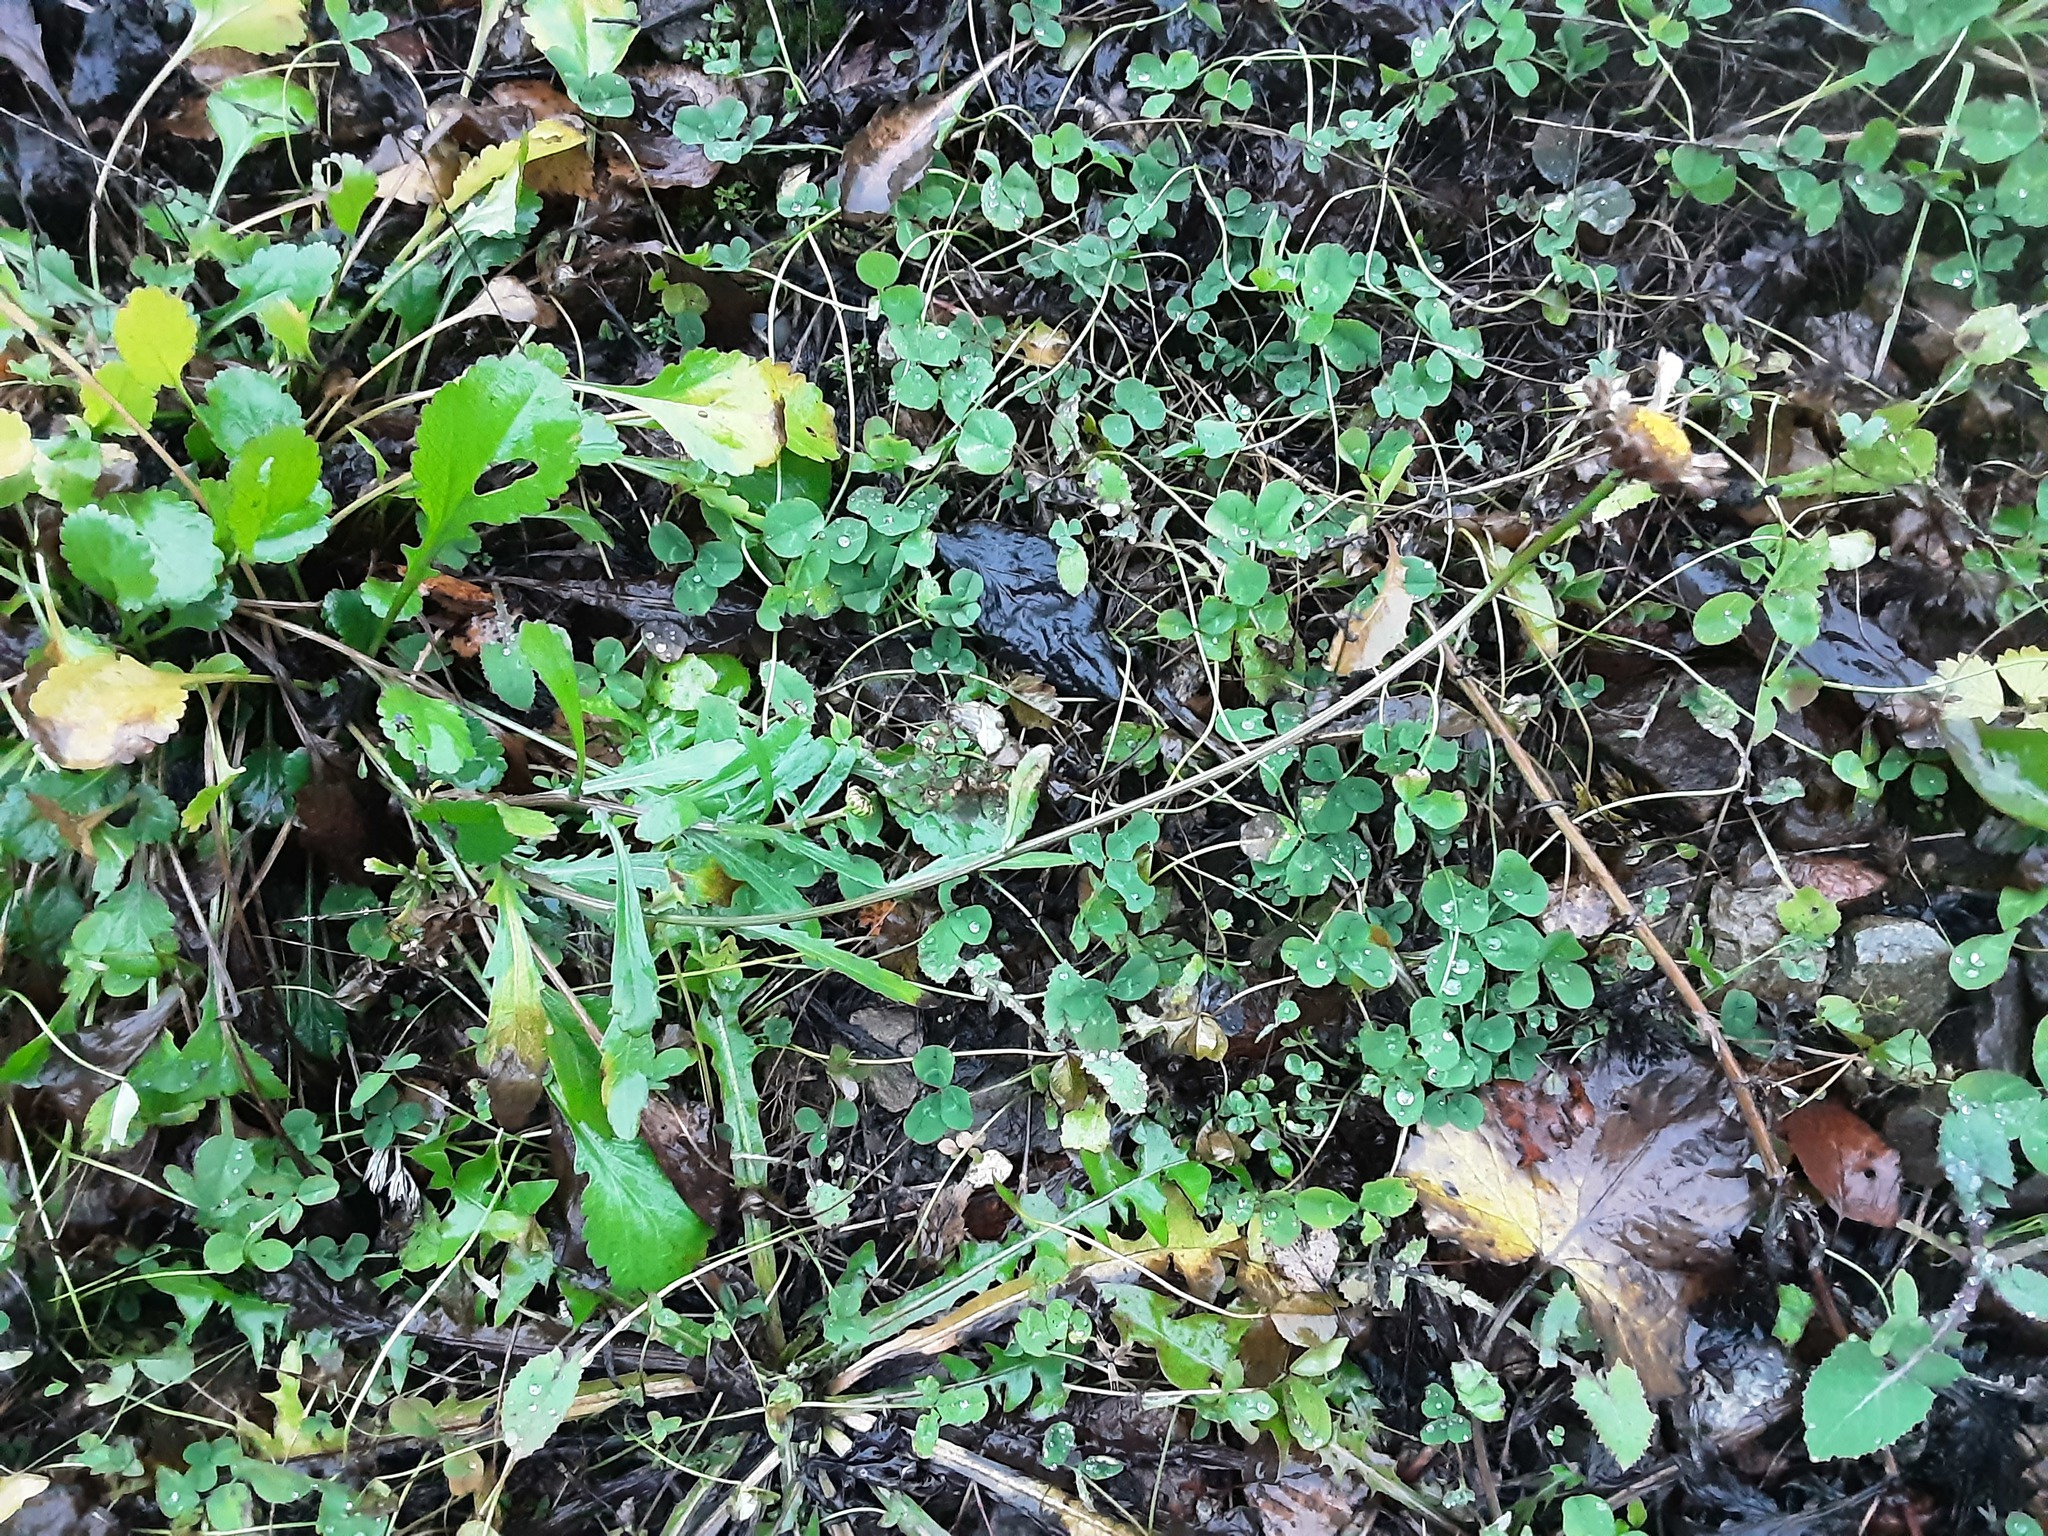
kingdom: Plantae
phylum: Tracheophyta
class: Magnoliopsida
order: Asterales
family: Asteraceae
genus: Leucanthemum
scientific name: Leucanthemum vulgare
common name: Oxeye daisy
